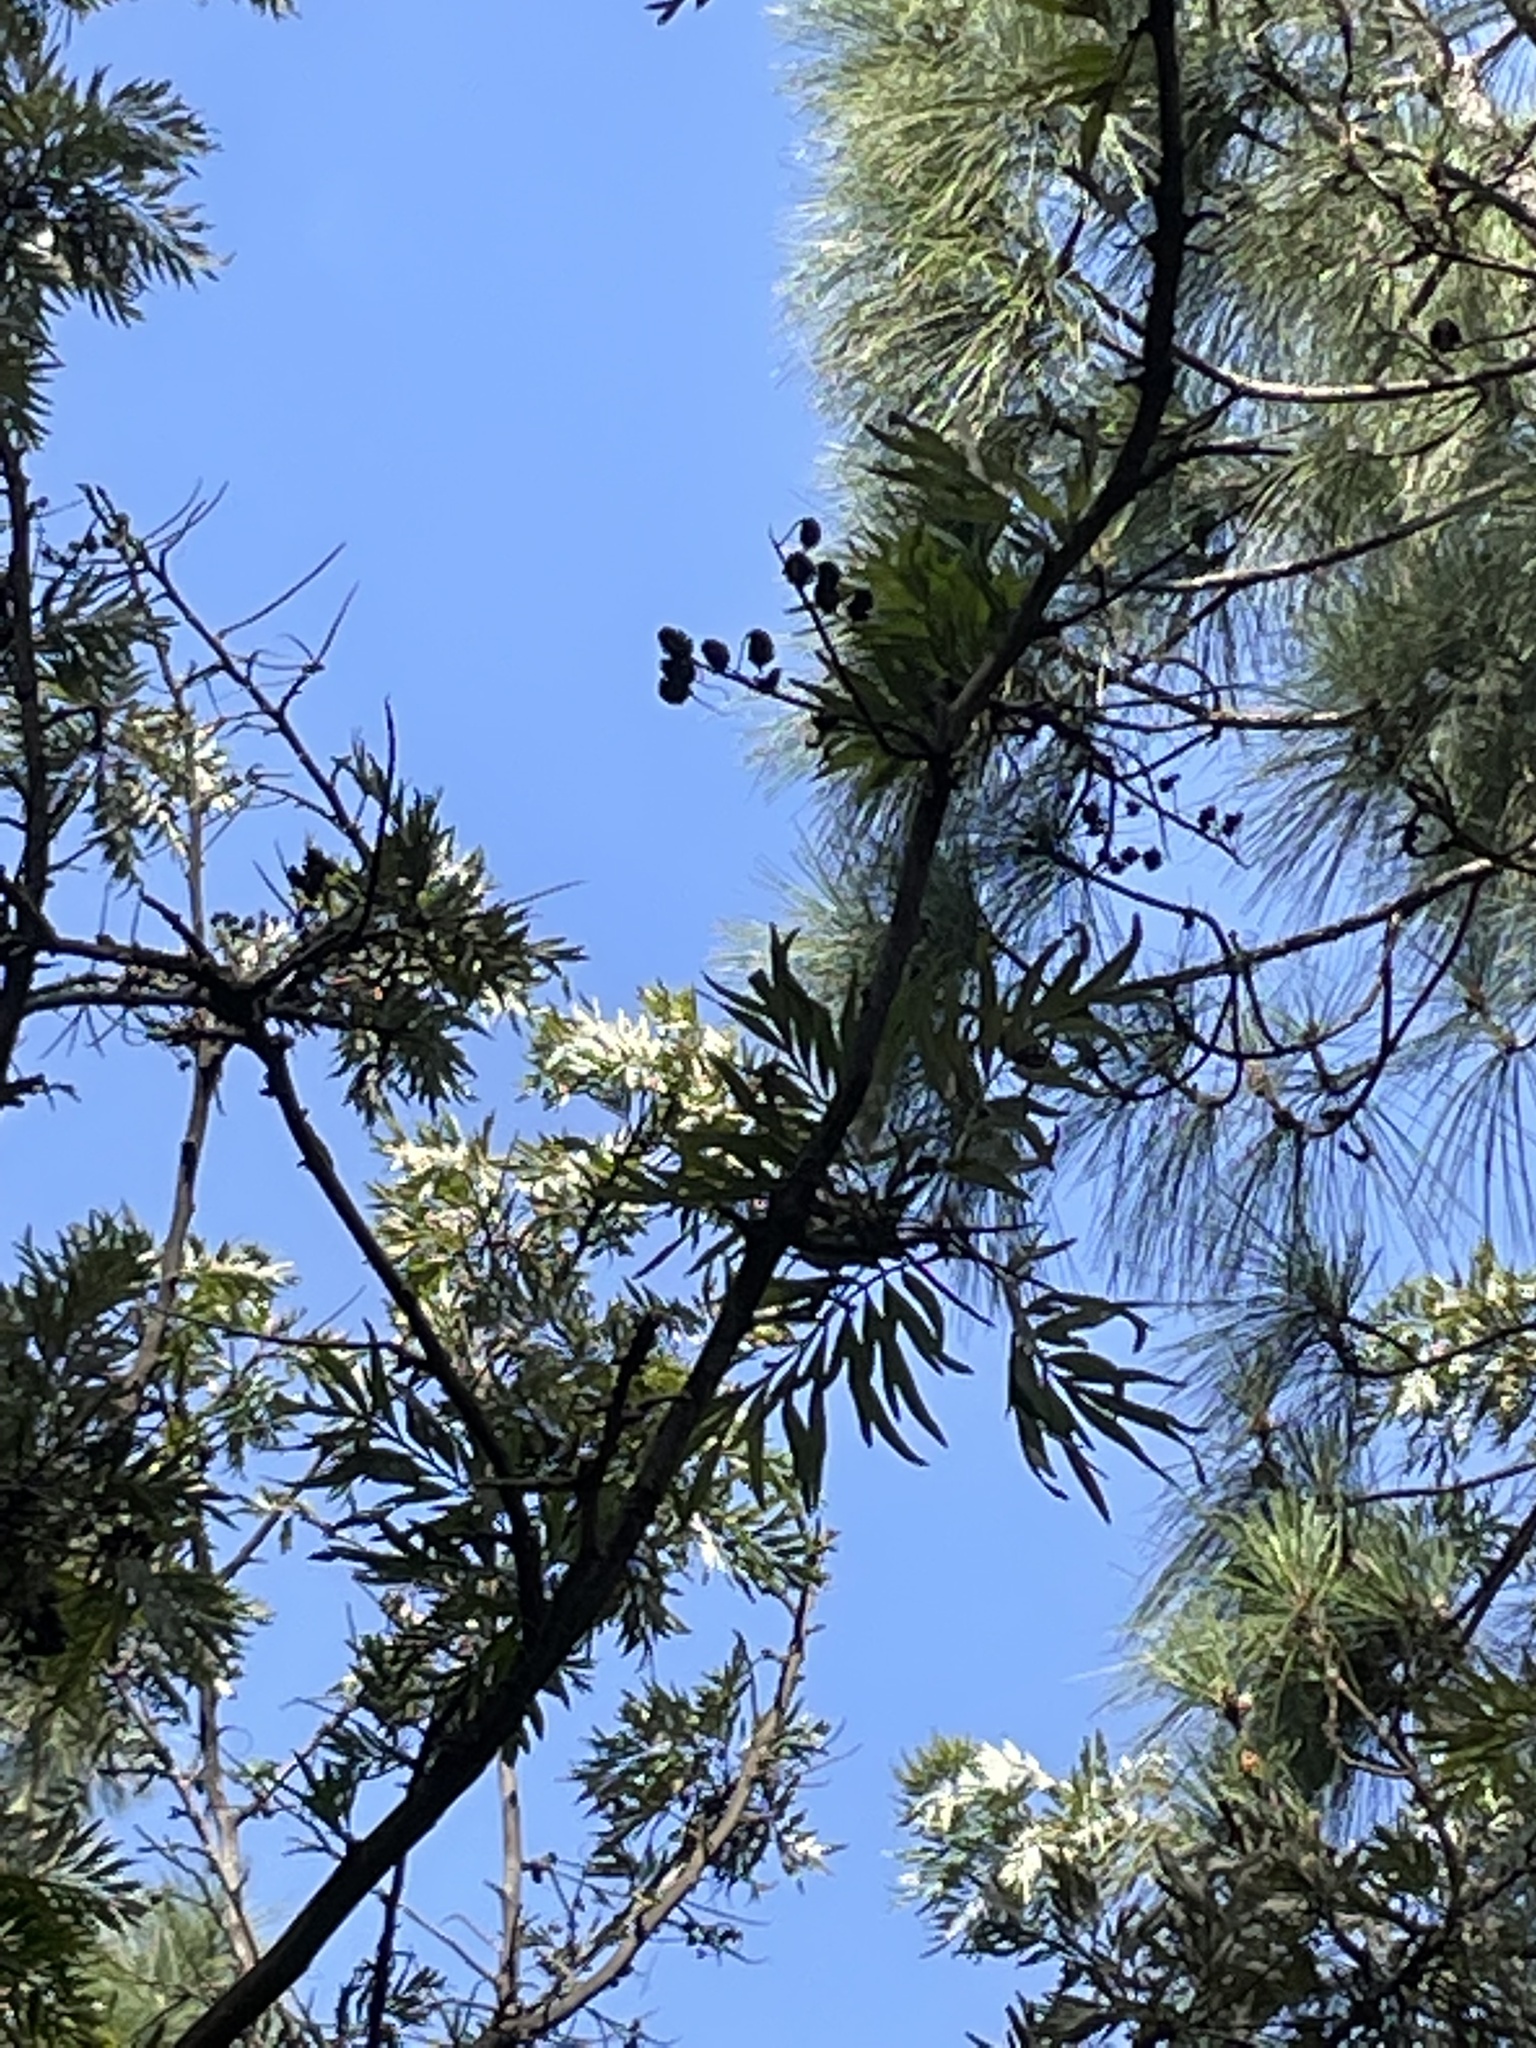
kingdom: Plantae
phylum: Tracheophyta
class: Magnoliopsida
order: Proteales
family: Proteaceae
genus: Grevillea
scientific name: Grevillea robusta
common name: Silkoak
